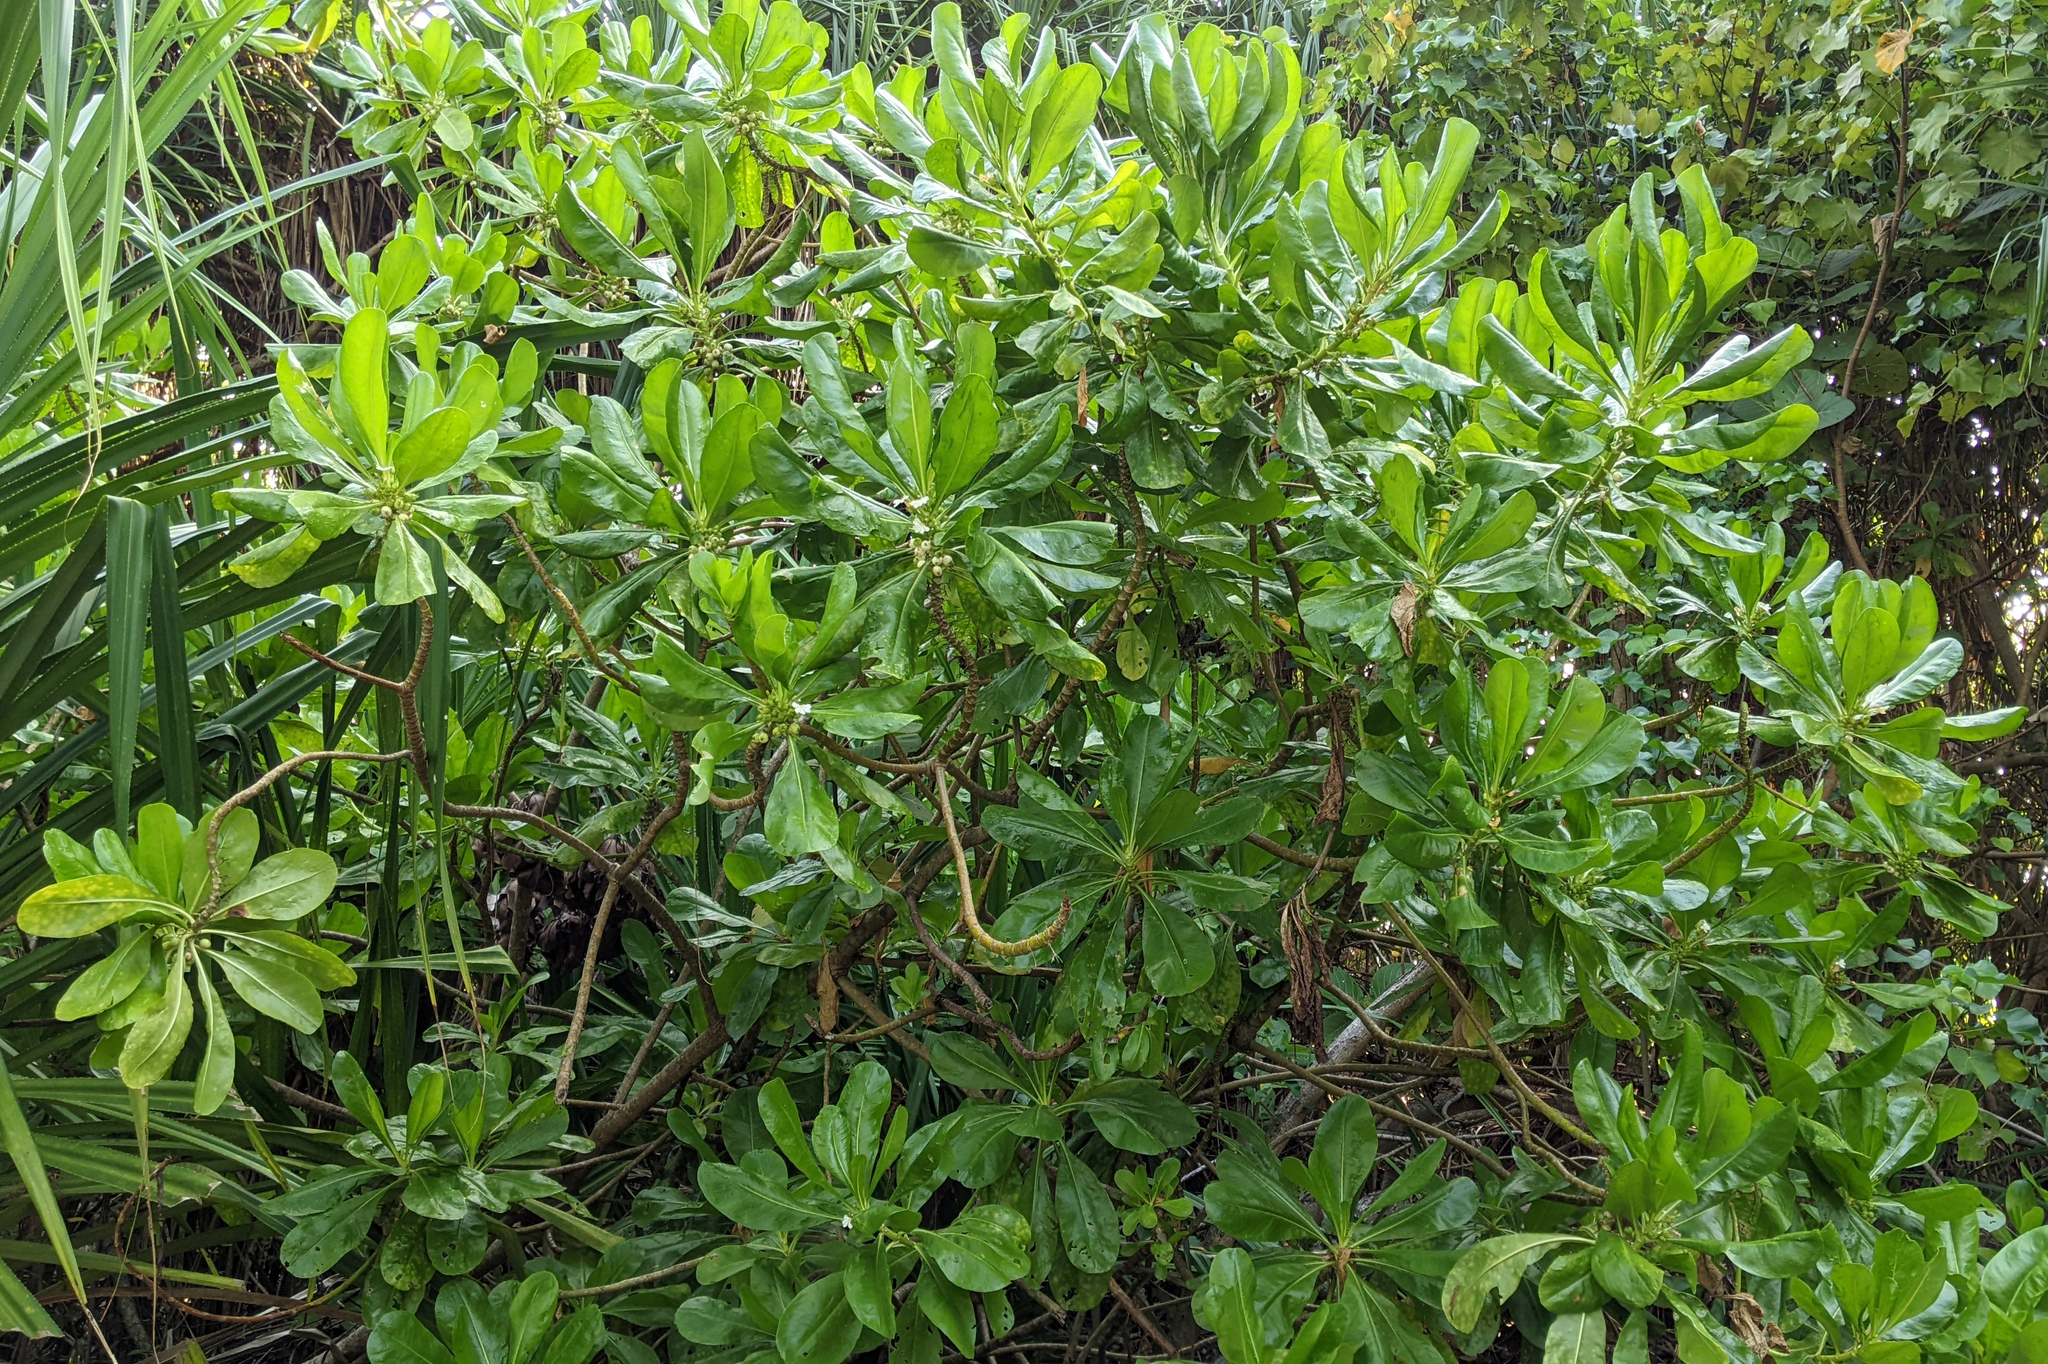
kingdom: Plantae
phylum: Tracheophyta
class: Magnoliopsida
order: Asterales
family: Goodeniaceae
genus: Scaevola
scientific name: Scaevola taccada
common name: Sea lettucetree
